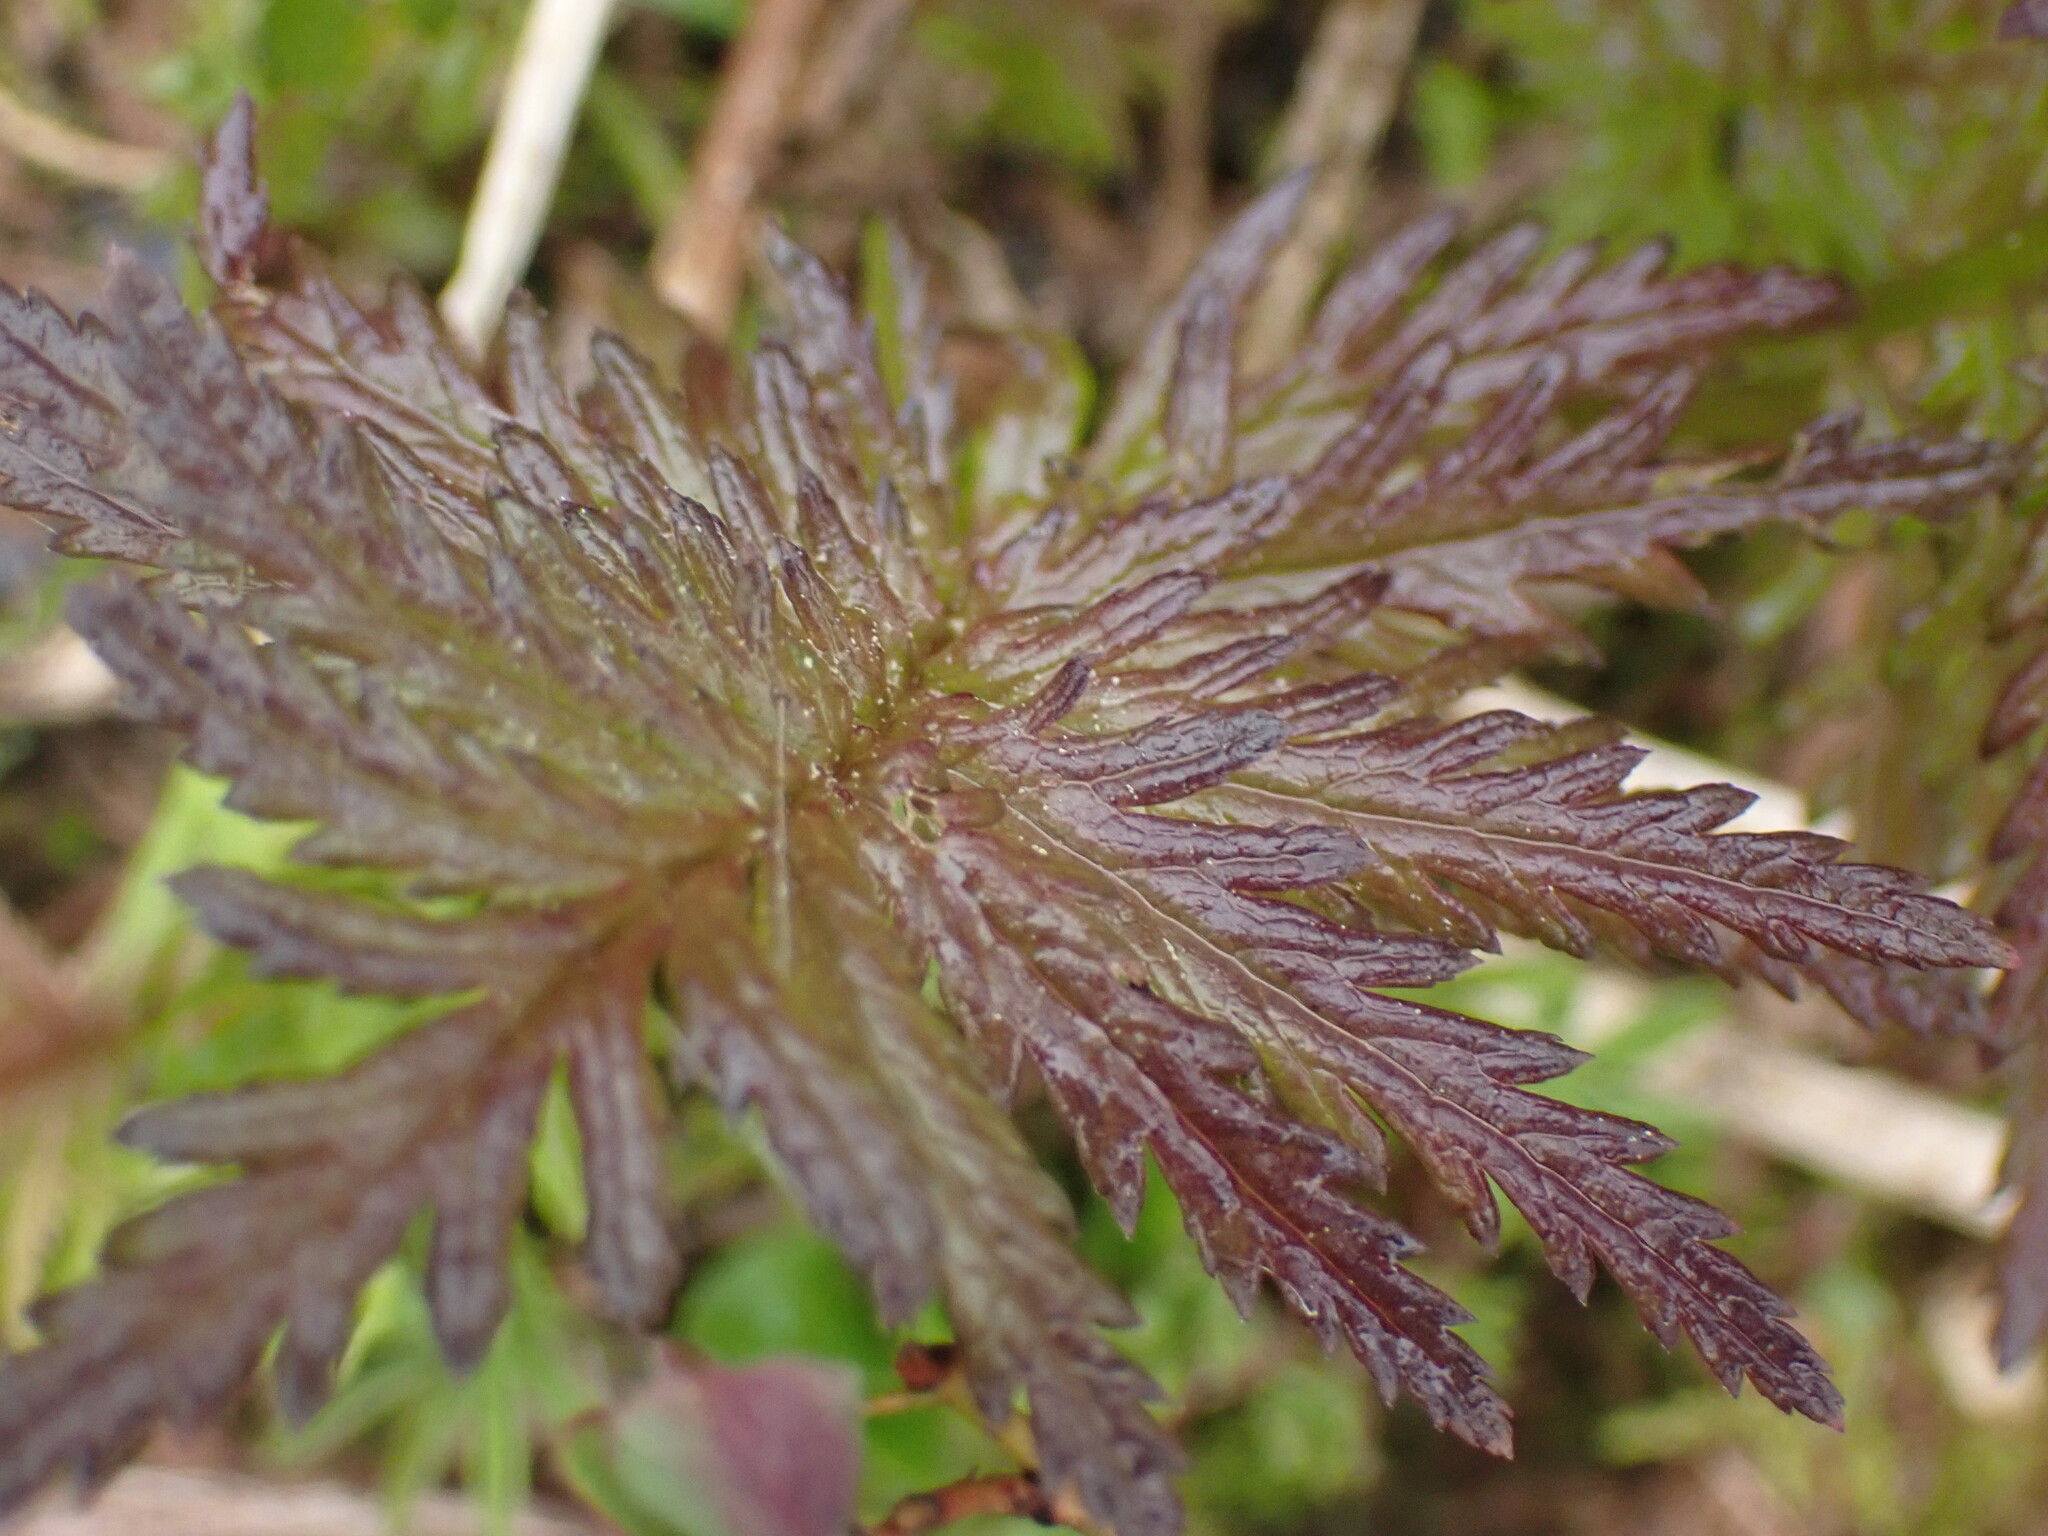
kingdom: Plantae
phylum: Tracheophyta
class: Magnoliopsida
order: Lamiales
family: Orobanchaceae
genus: Pedicularis
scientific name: Pedicularis bracteosa
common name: Bracted lousewort
